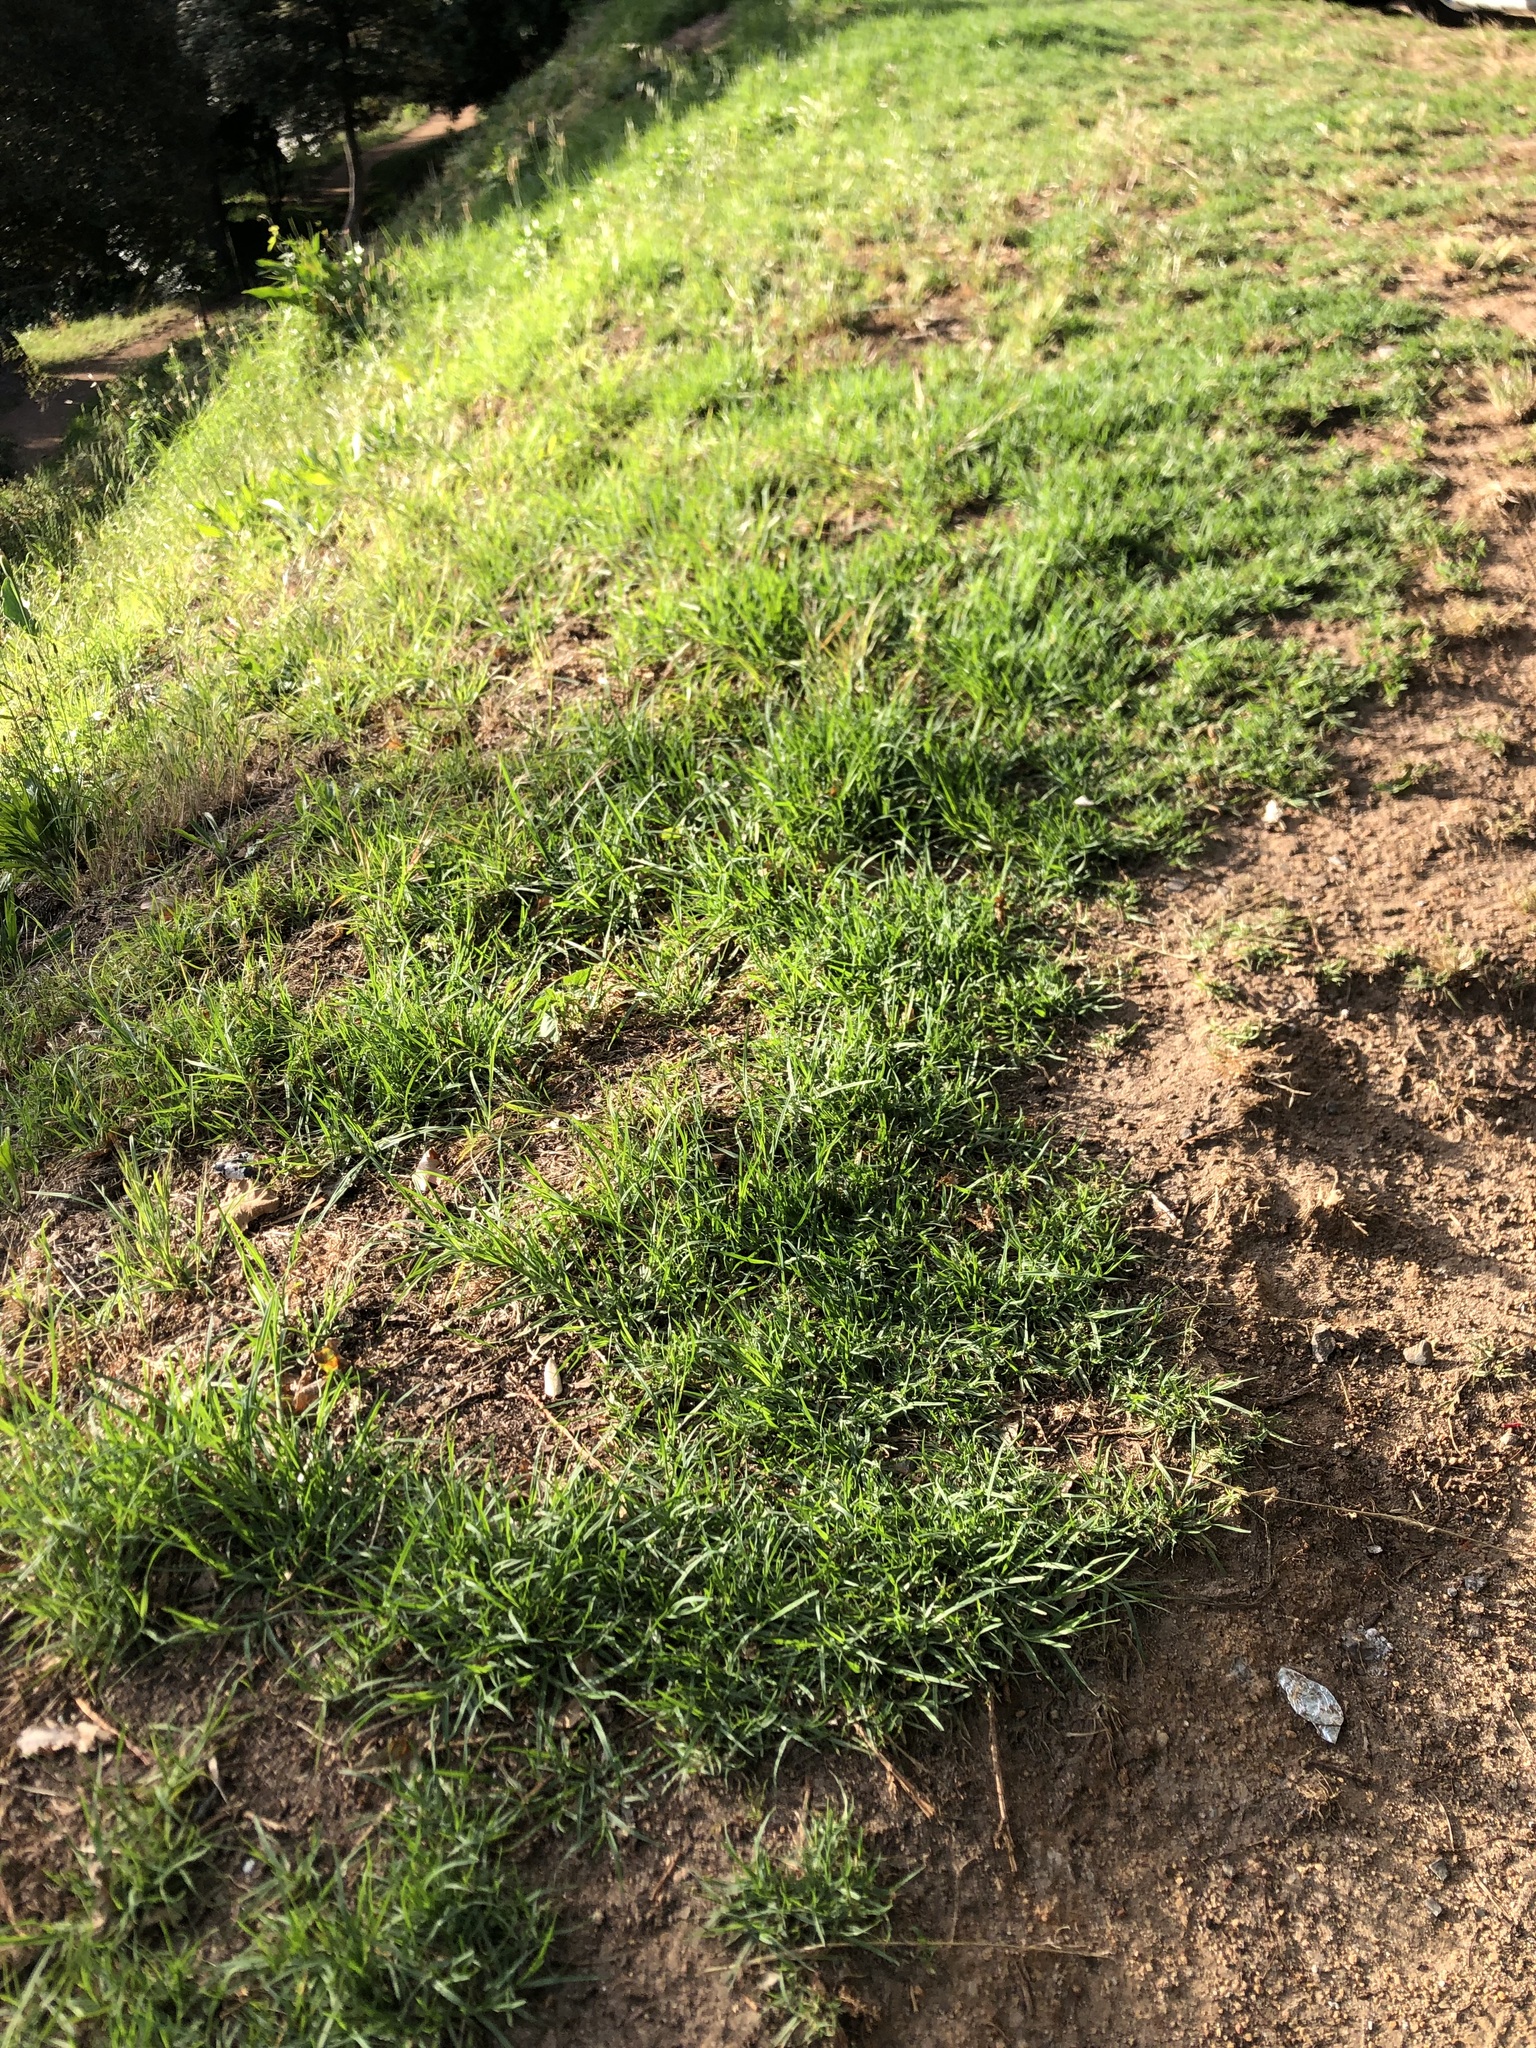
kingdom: Plantae
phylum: Tracheophyta
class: Liliopsida
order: Poales
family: Poaceae
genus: Cenchrus
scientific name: Cenchrus clandestinus
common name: Kikuyugrass
